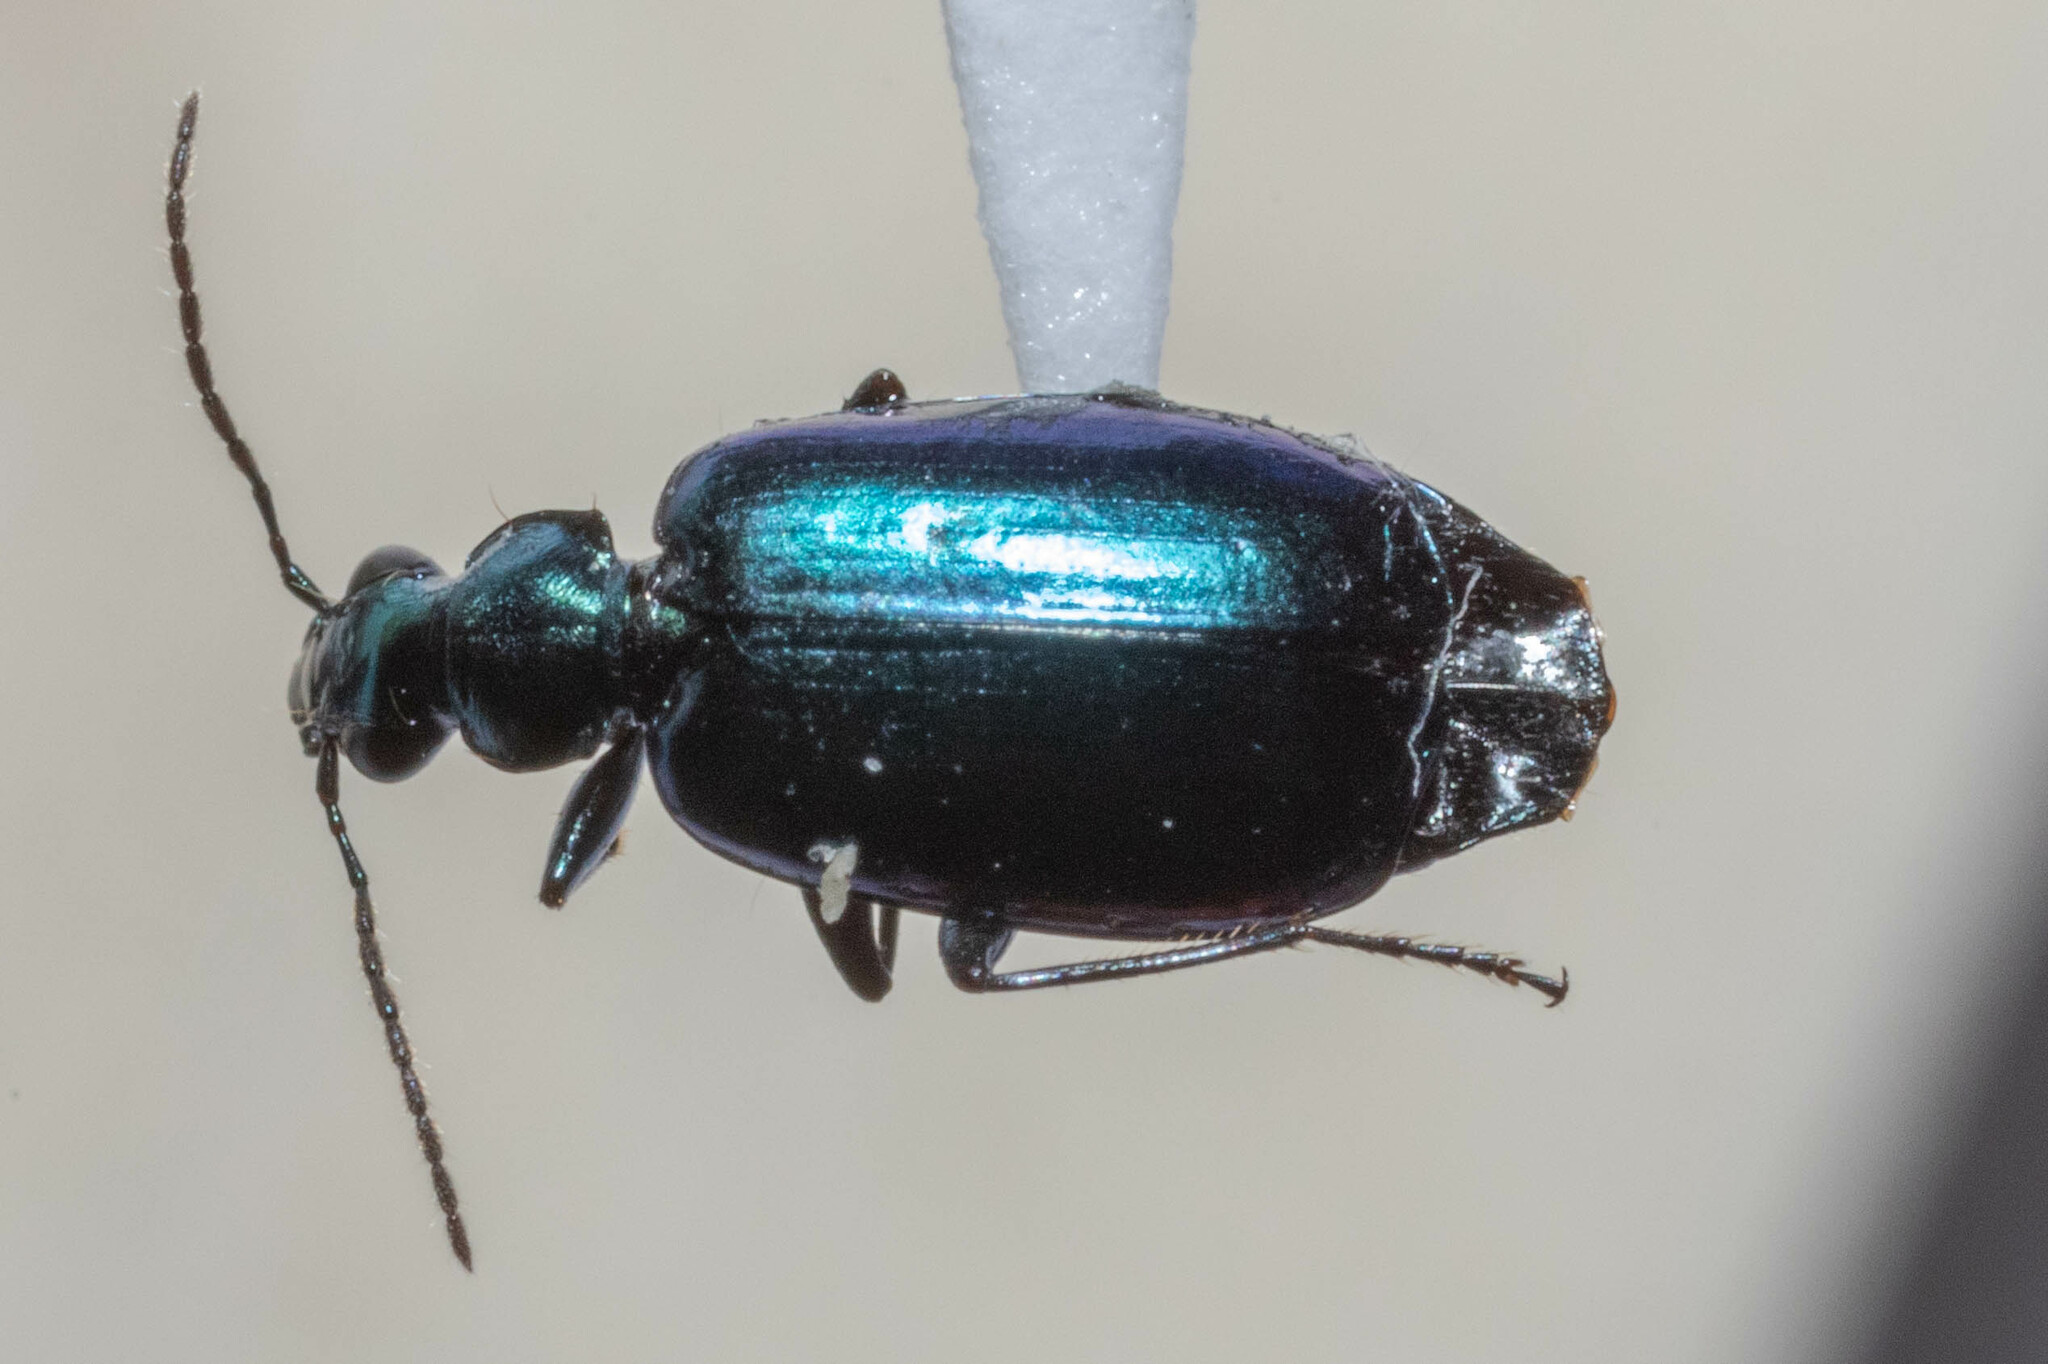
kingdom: Animalia
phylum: Arthropoda
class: Insecta
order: Coleoptera
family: Carabidae
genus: Lebia
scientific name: Lebia viridis
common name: Flower lebia beetle
